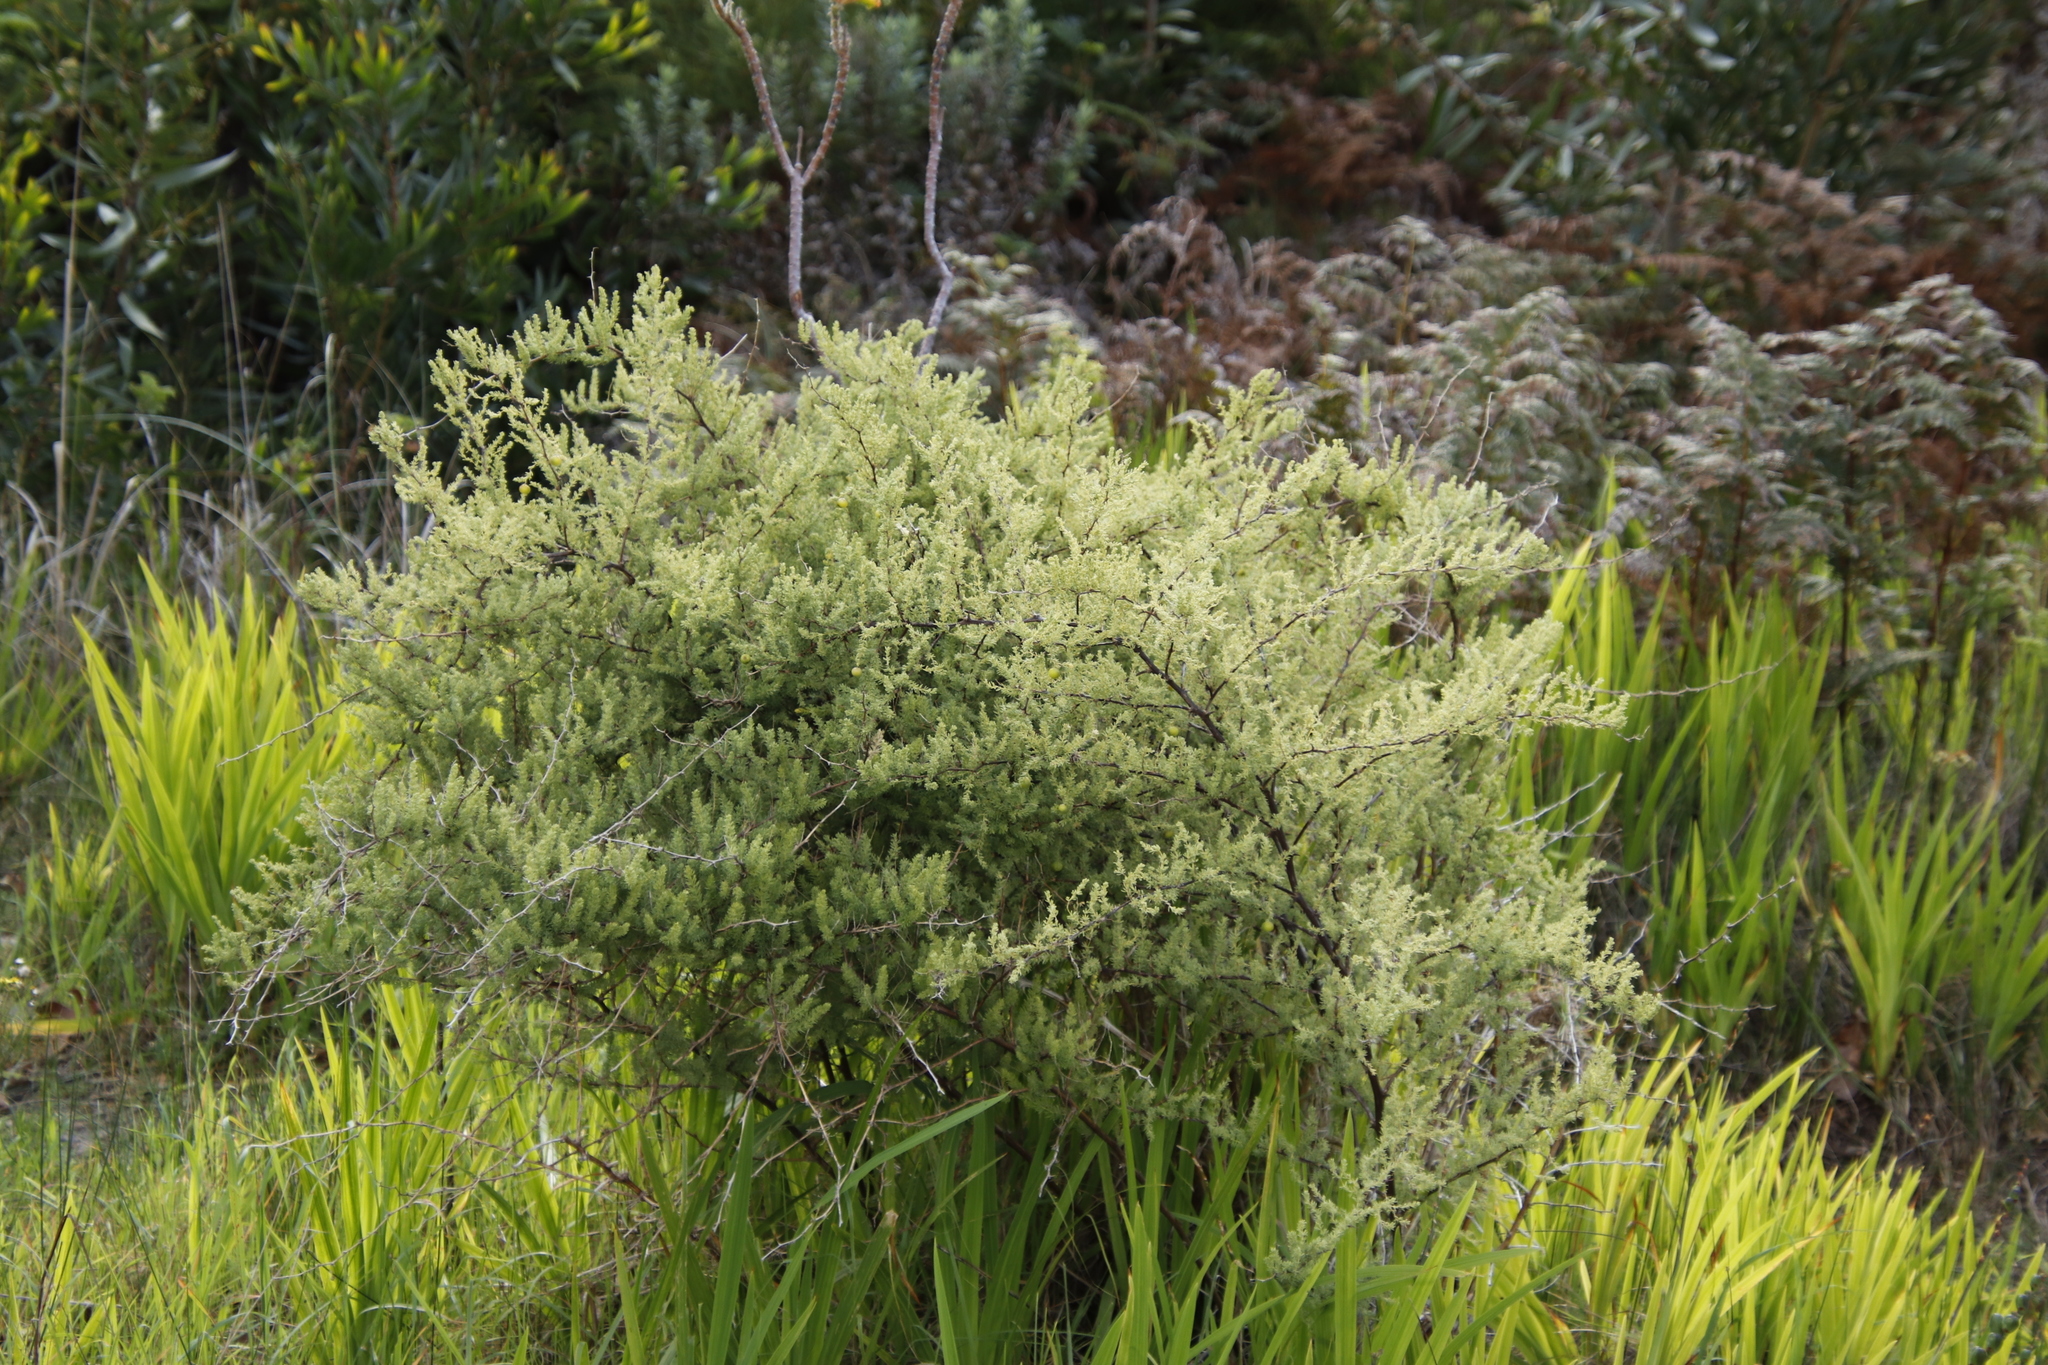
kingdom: Plantae
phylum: Tracheophyta
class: Liliopsida
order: Asparagales
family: Asparagaceae
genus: Asparagus
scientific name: Asparagus rubicundus
